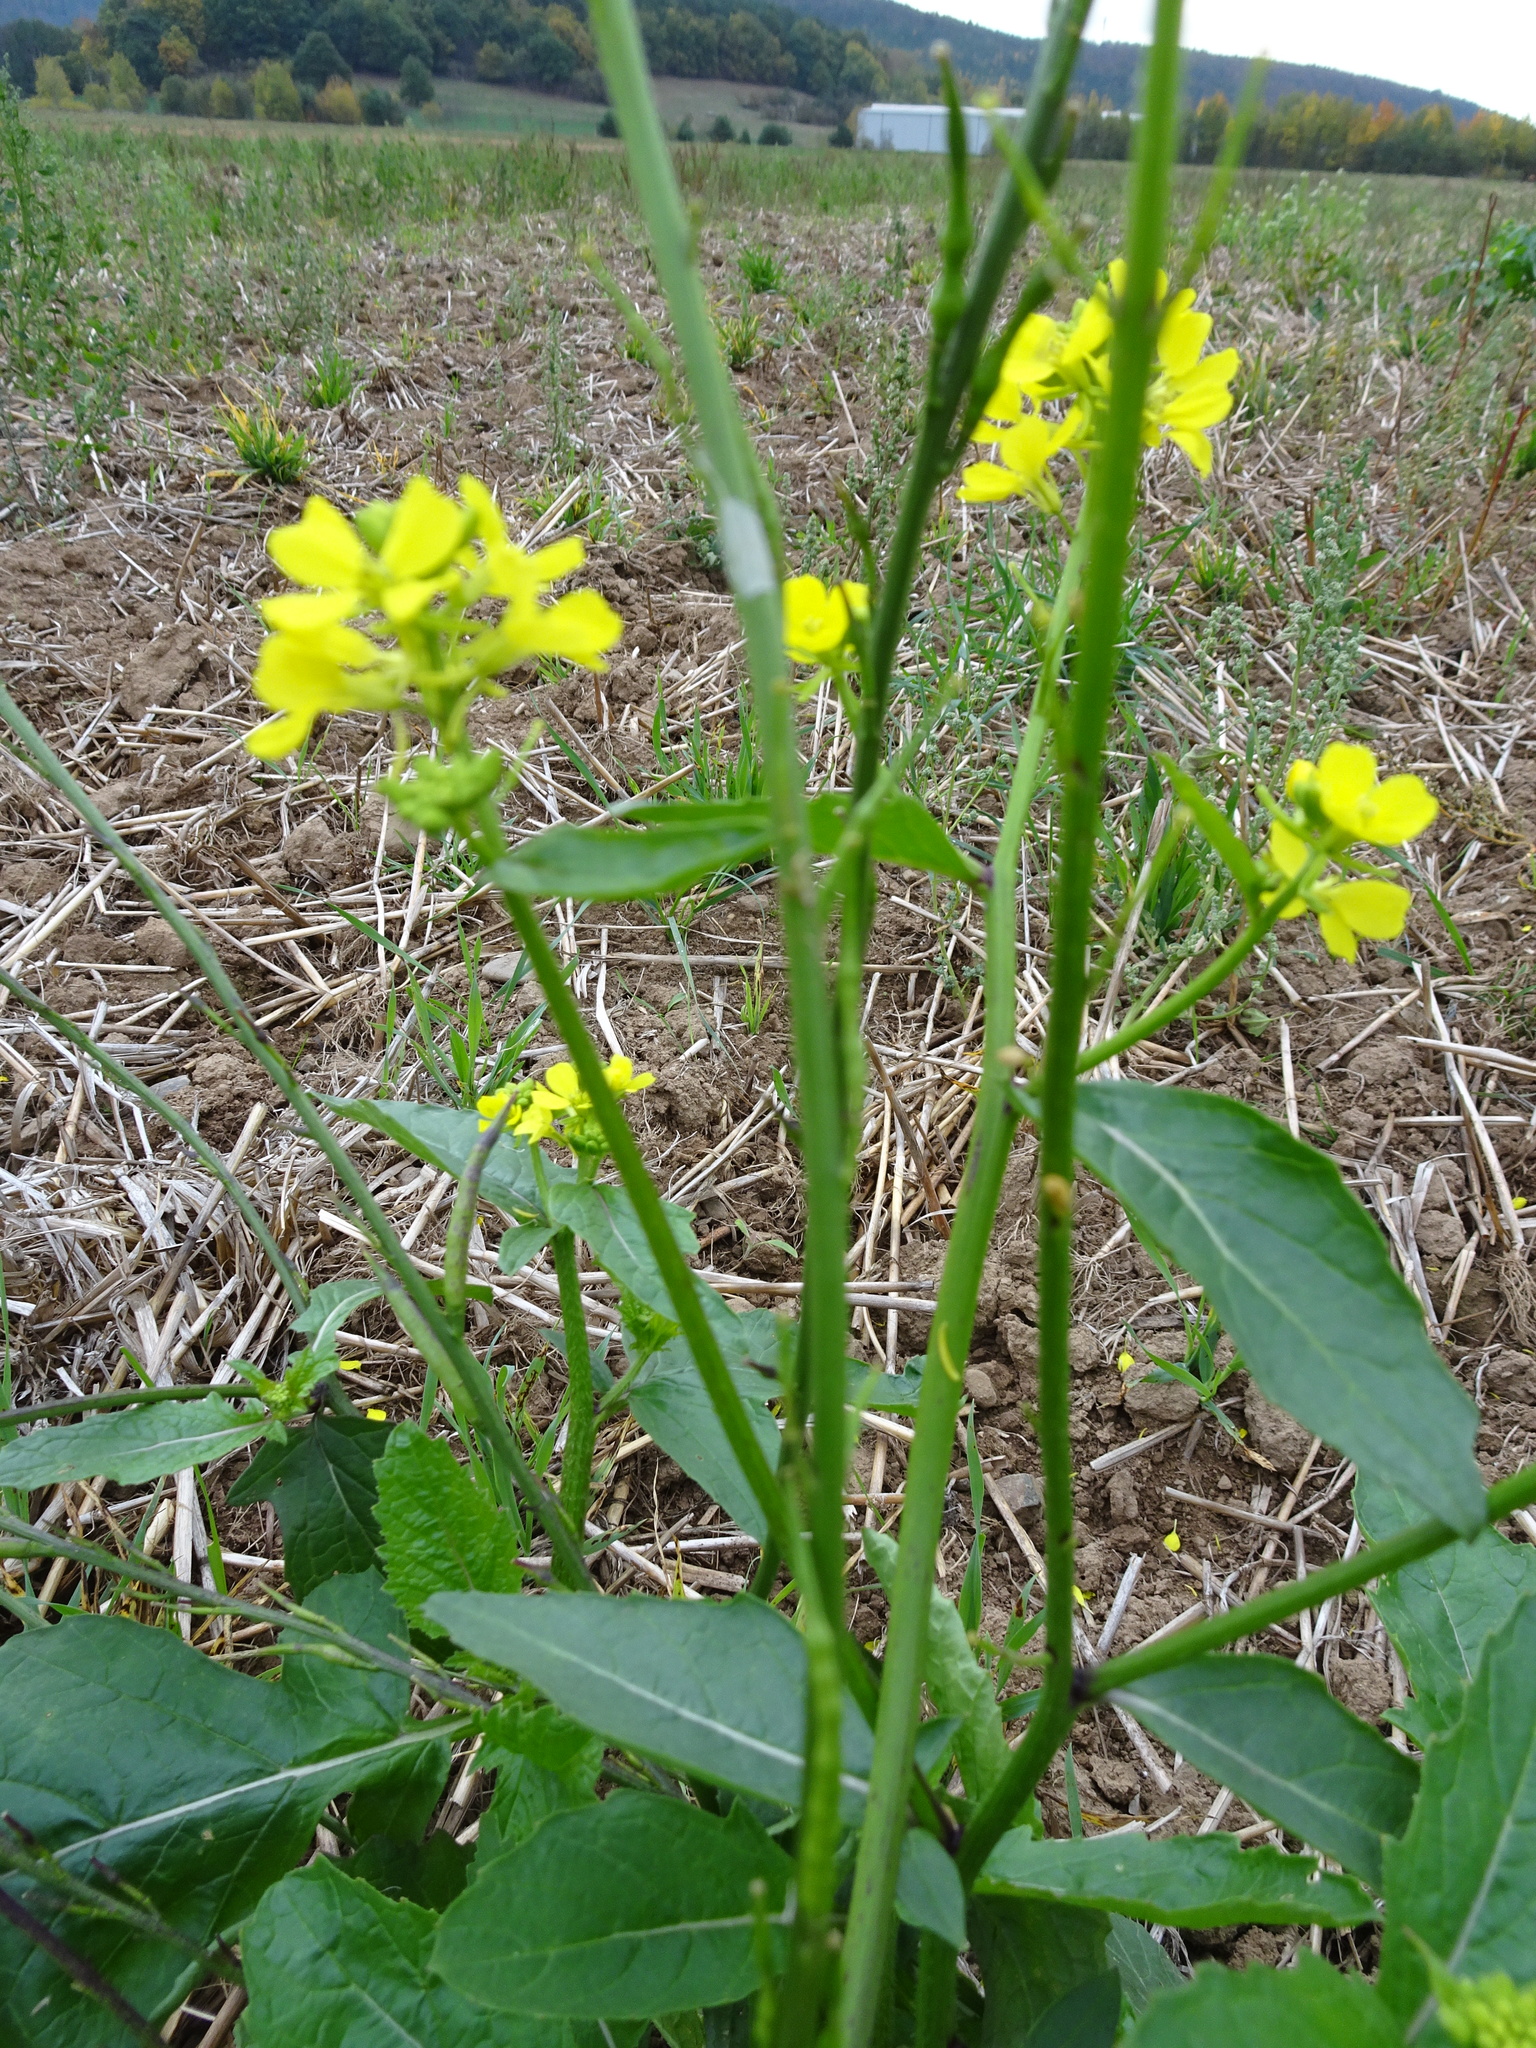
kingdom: Plantae
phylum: Tracheophyta
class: Magnoliopsida
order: Brassicales
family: Brassicaceae
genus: Sinapis
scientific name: Sinapis arvensis
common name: Charlock
